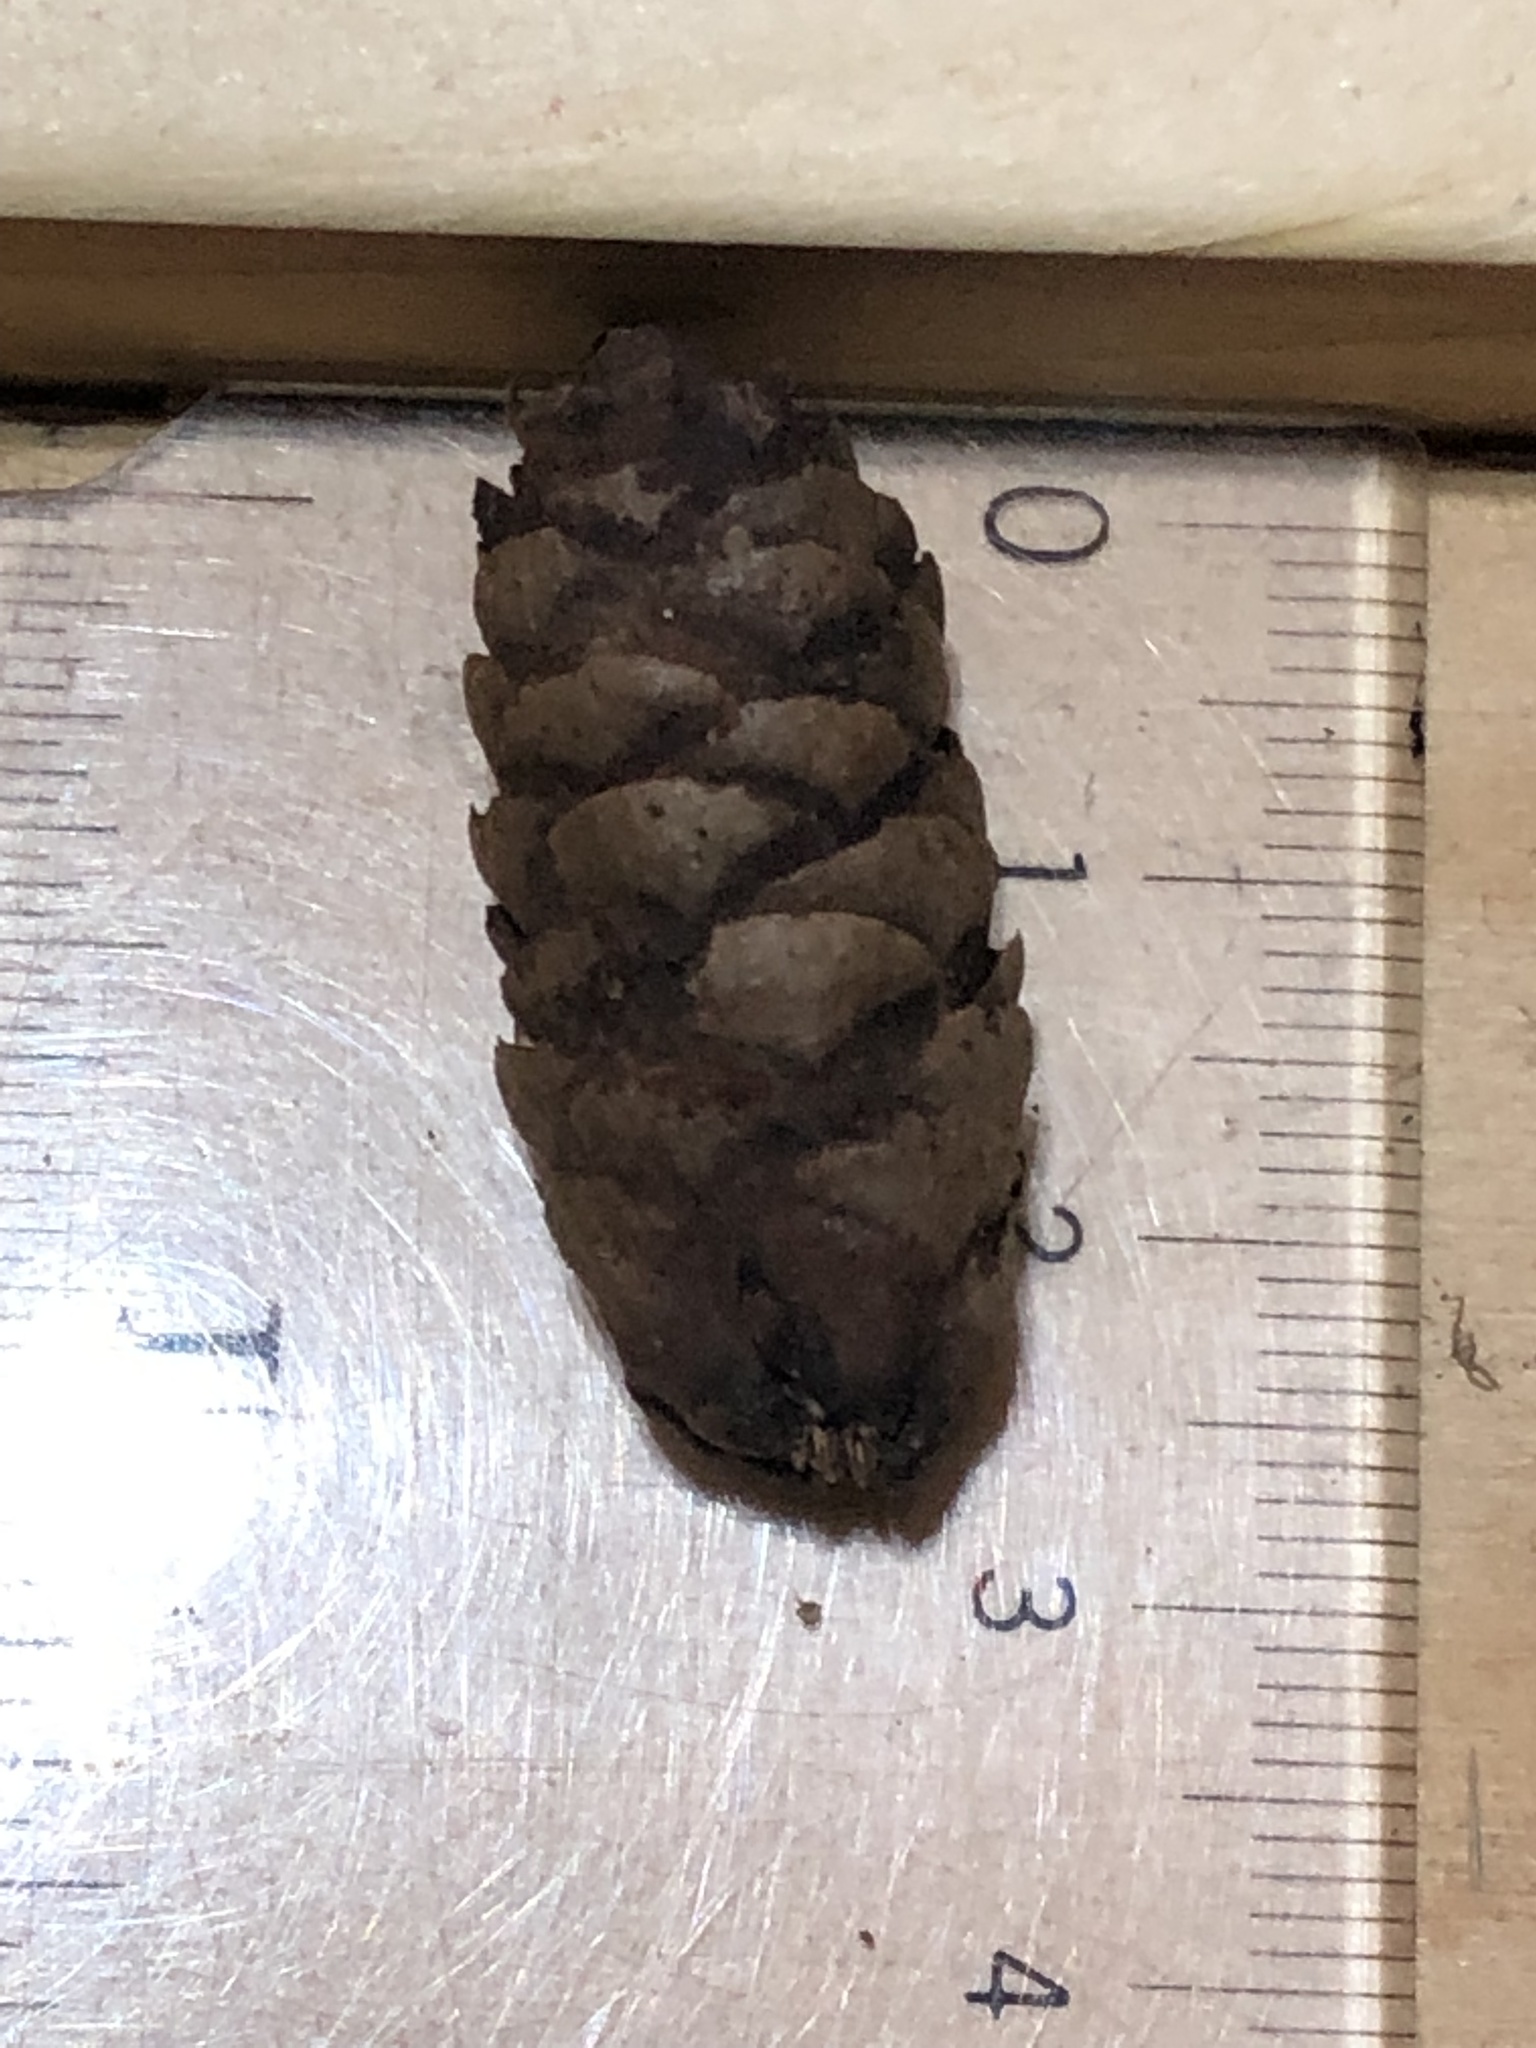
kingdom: Plantae
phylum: Tracheophyta
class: Pinopsida
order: Pinales
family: Pinaceae
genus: Picea
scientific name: Picea glauca
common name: White spruce
